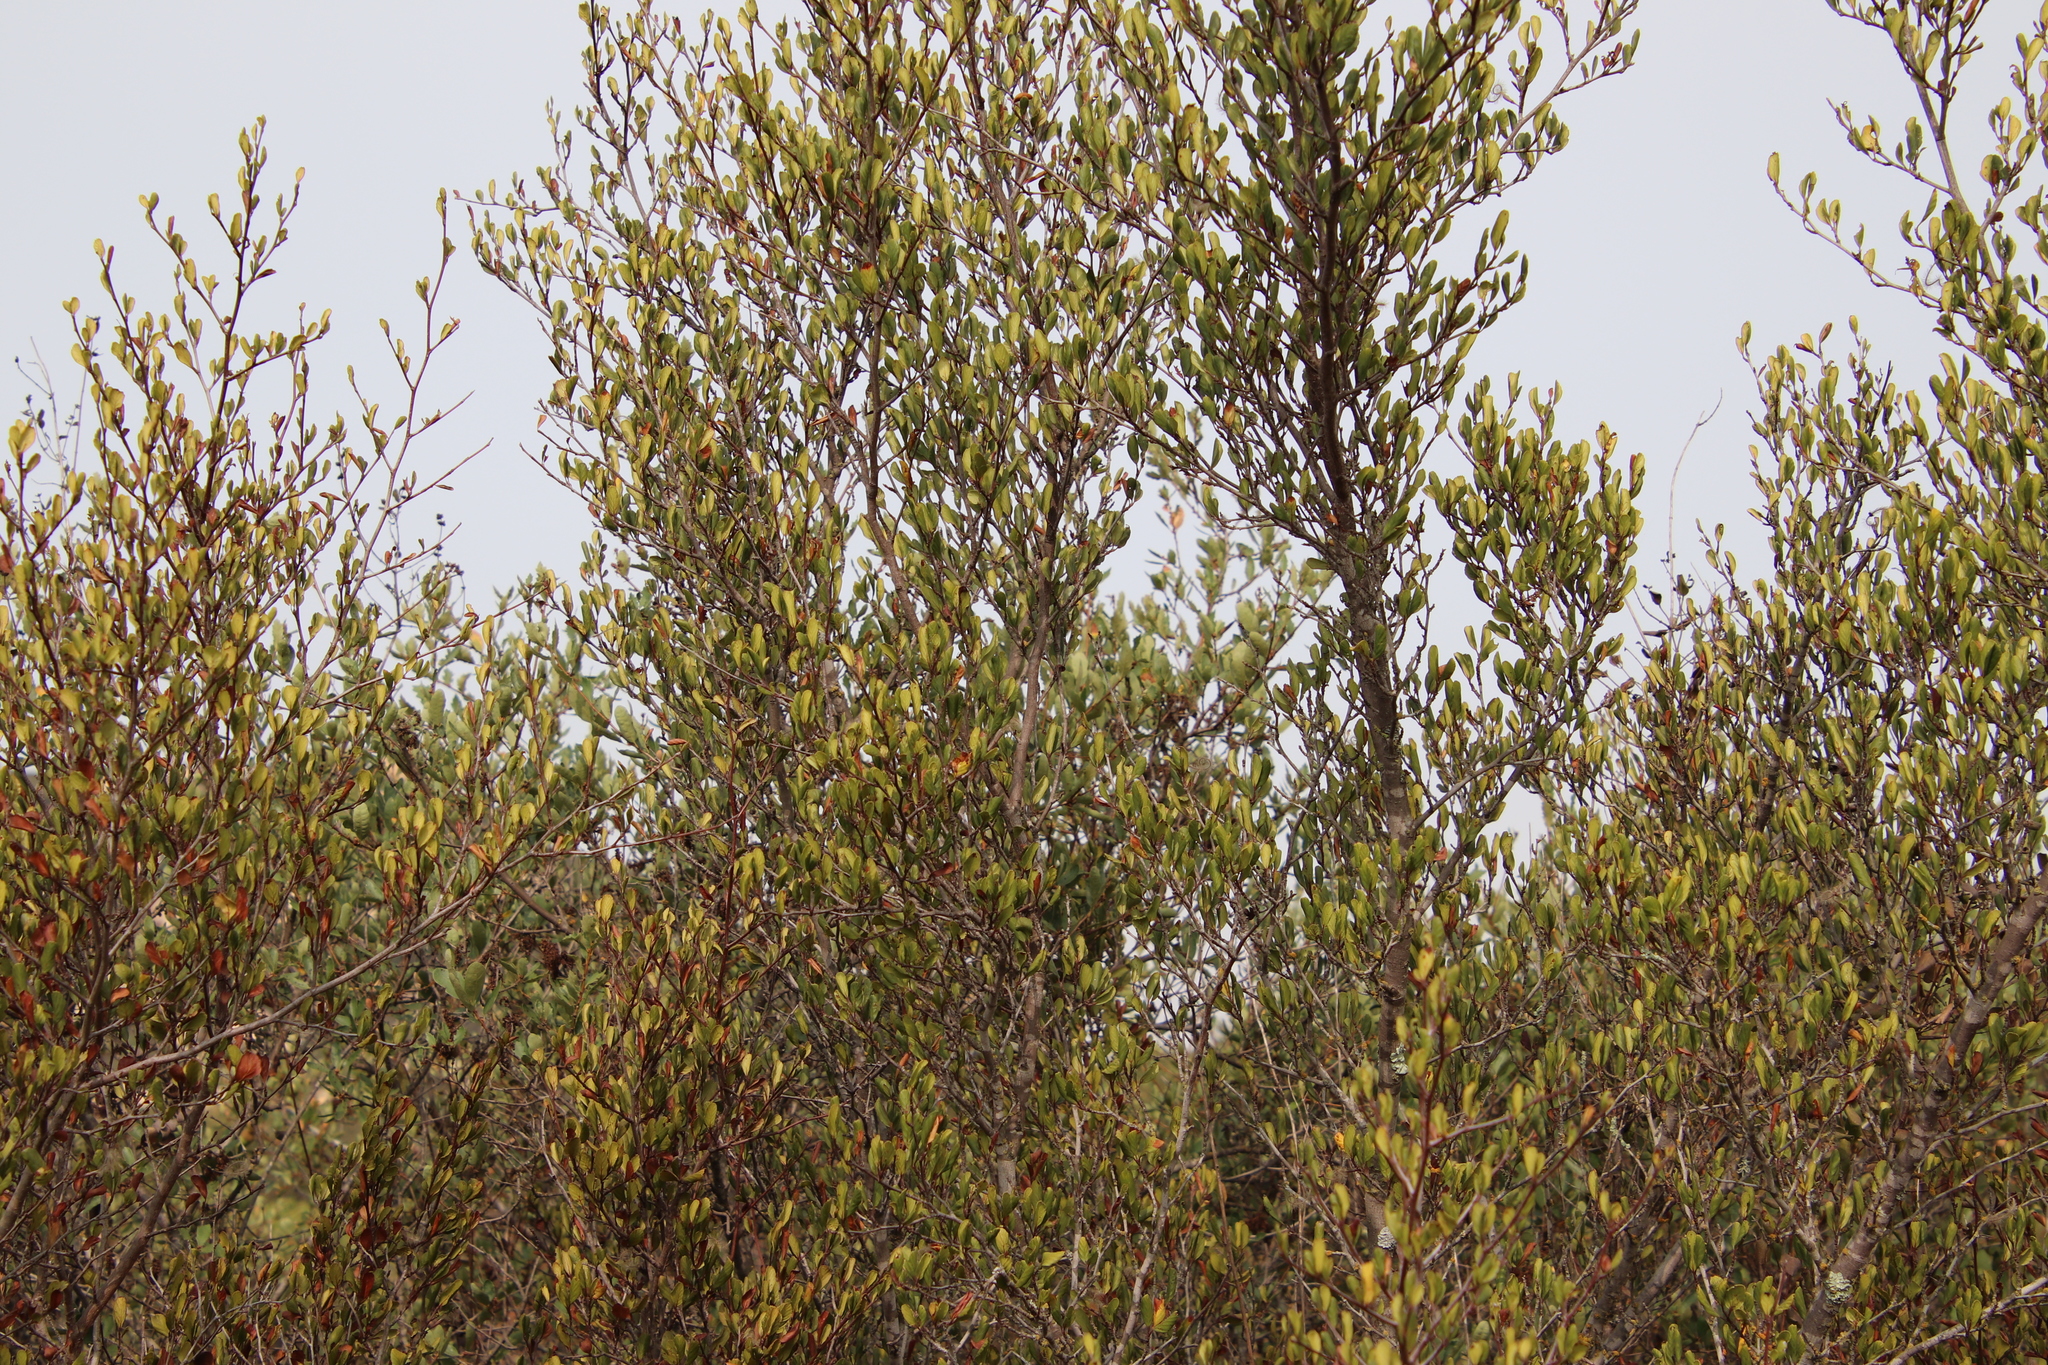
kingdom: Plantae
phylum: Tracheophyta
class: Magnoliopsida
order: Rosales
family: Rosaceae
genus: Cercocarpus
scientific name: Cercocarpus montanus
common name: Alder-leaf cercocarpus
